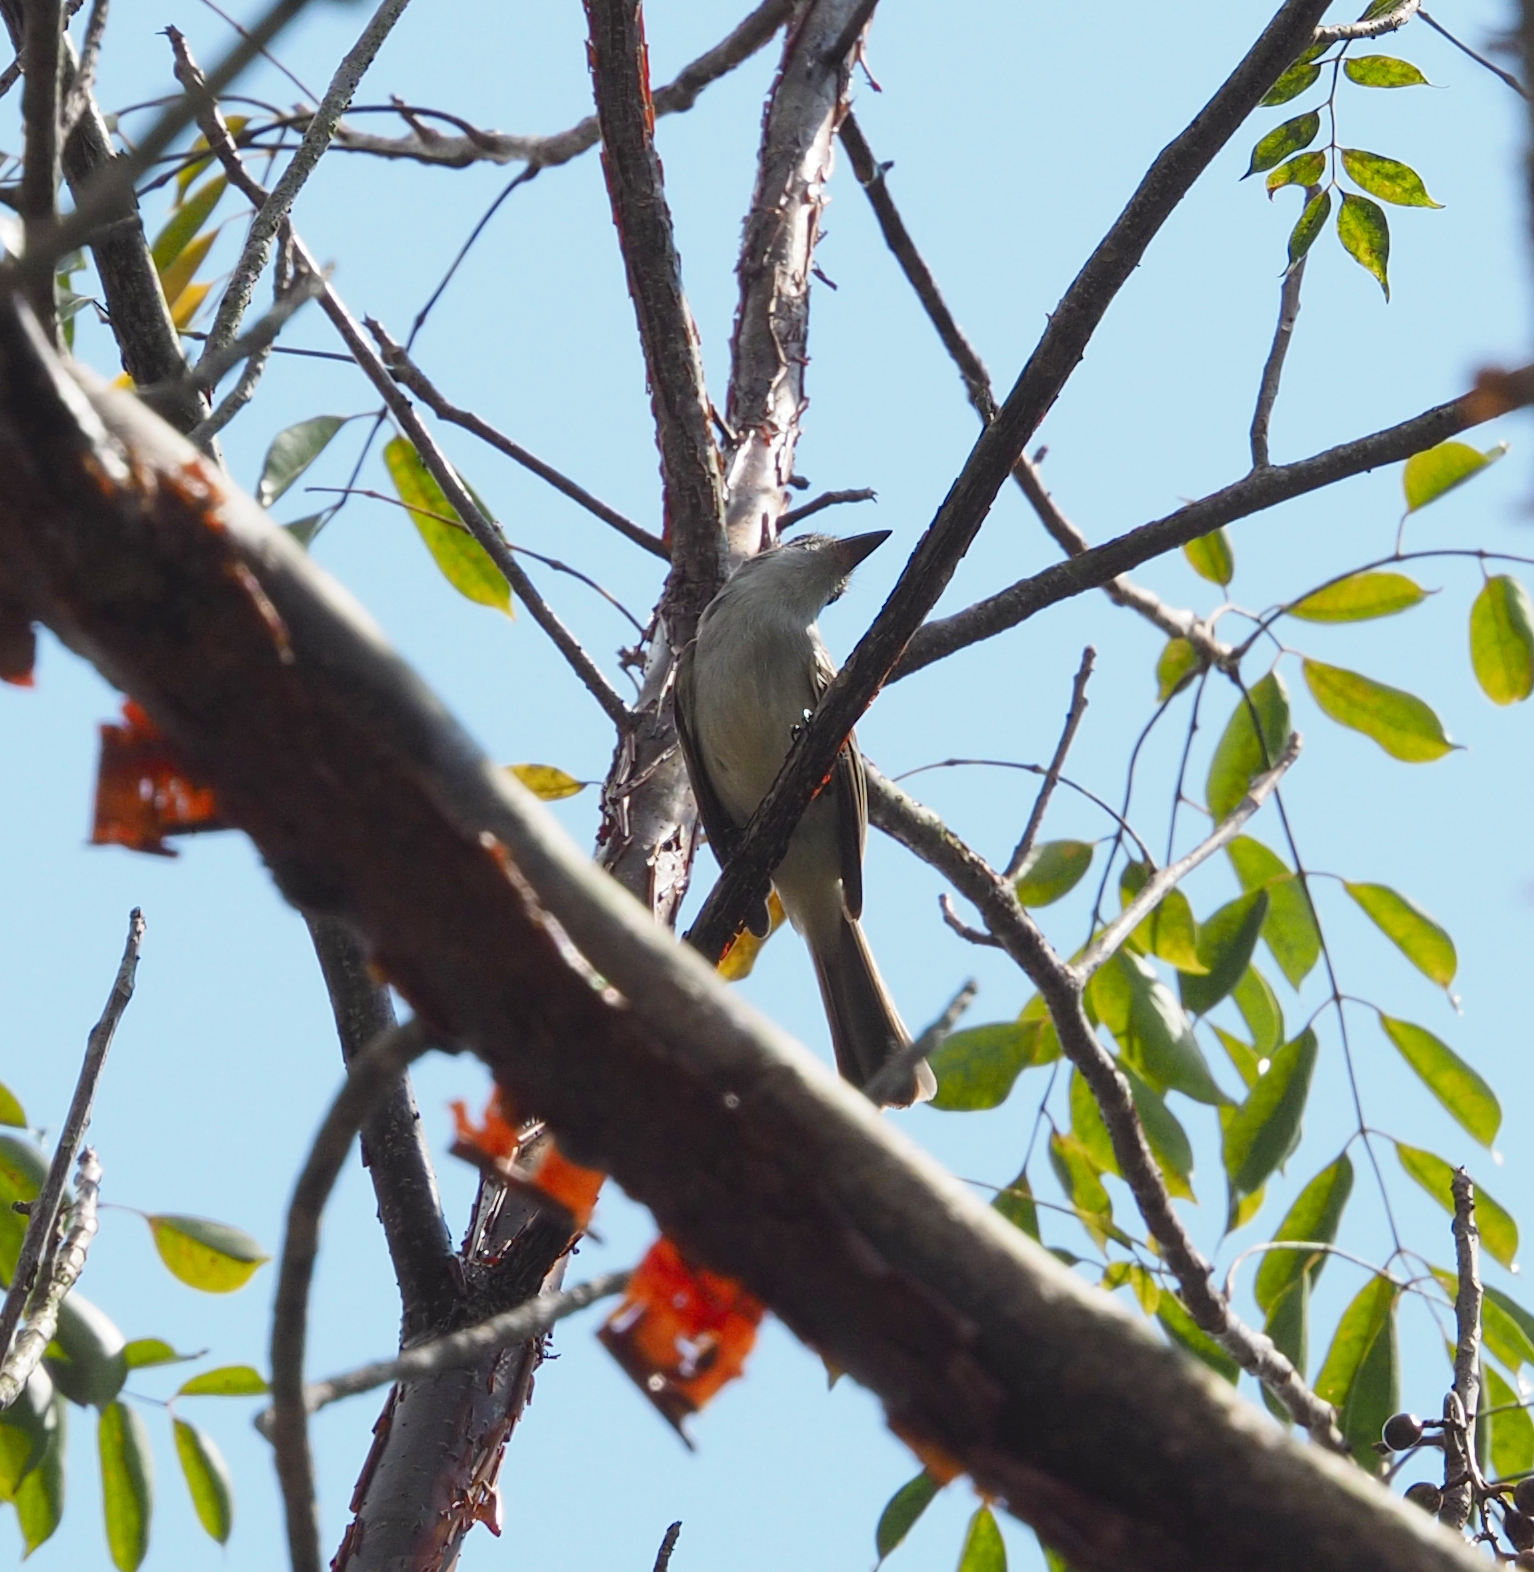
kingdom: Animalia
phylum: Chordata
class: Aves
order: Passeriformes
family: Tyrannidae
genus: Tyrannus
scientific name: Tyrannus caudifasciatus
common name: Loggerhead kingbird
